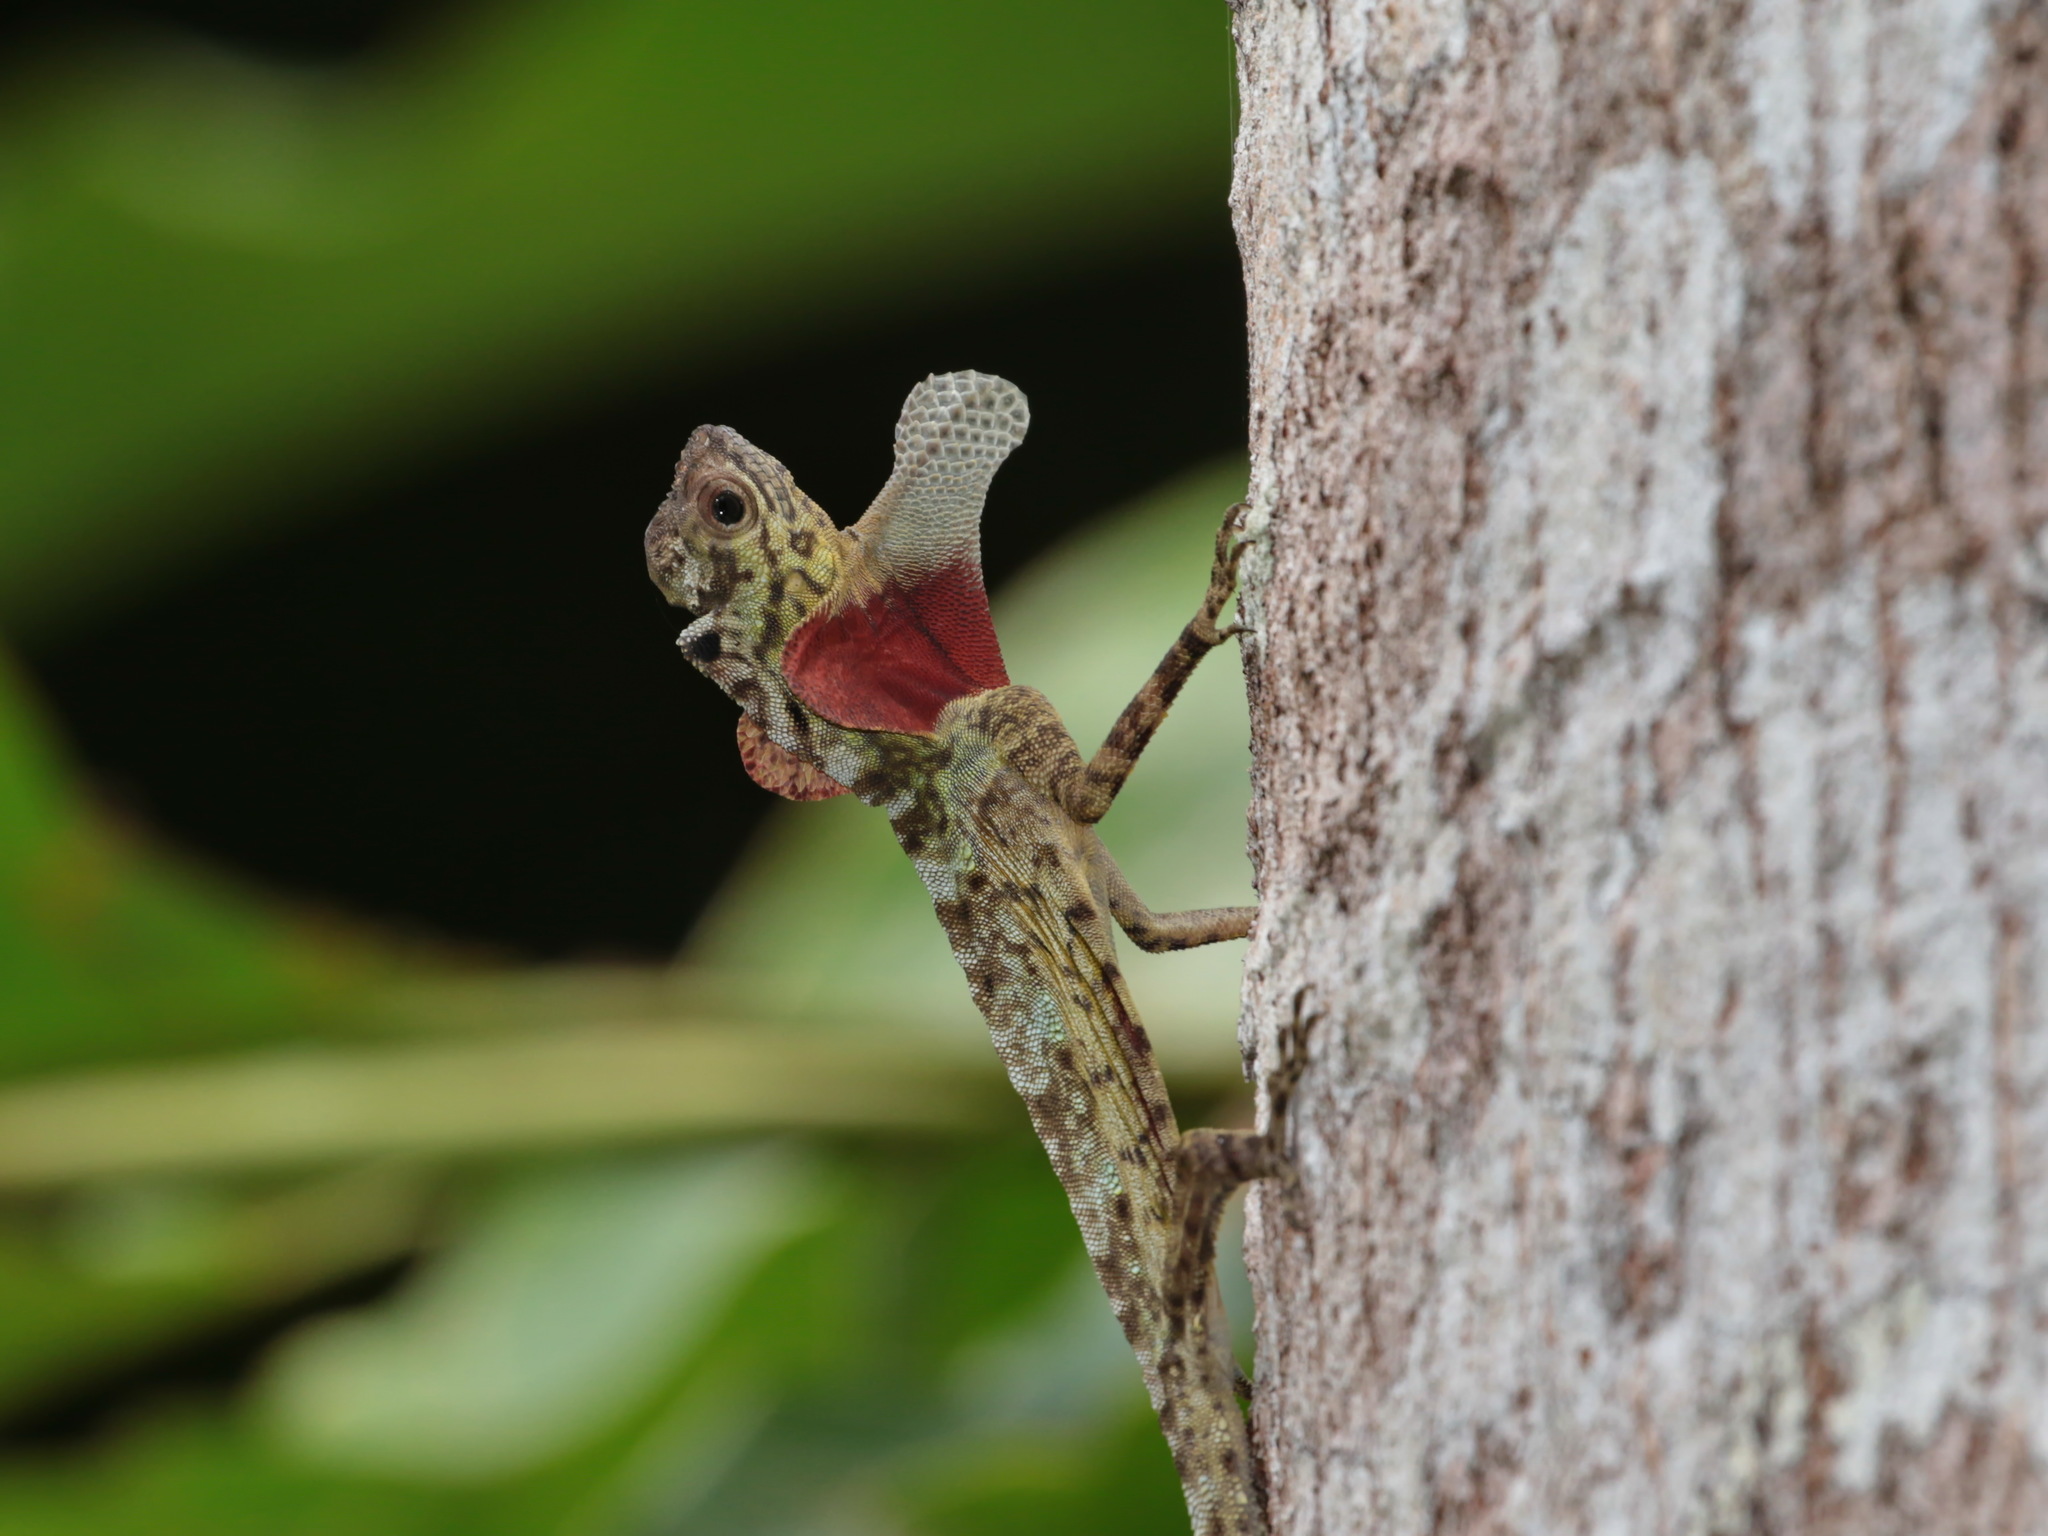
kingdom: Animalia
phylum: Chordata
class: Squamata
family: Agamidae
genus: Draco
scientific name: Draco formosus
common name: Dusky gliding lizard
